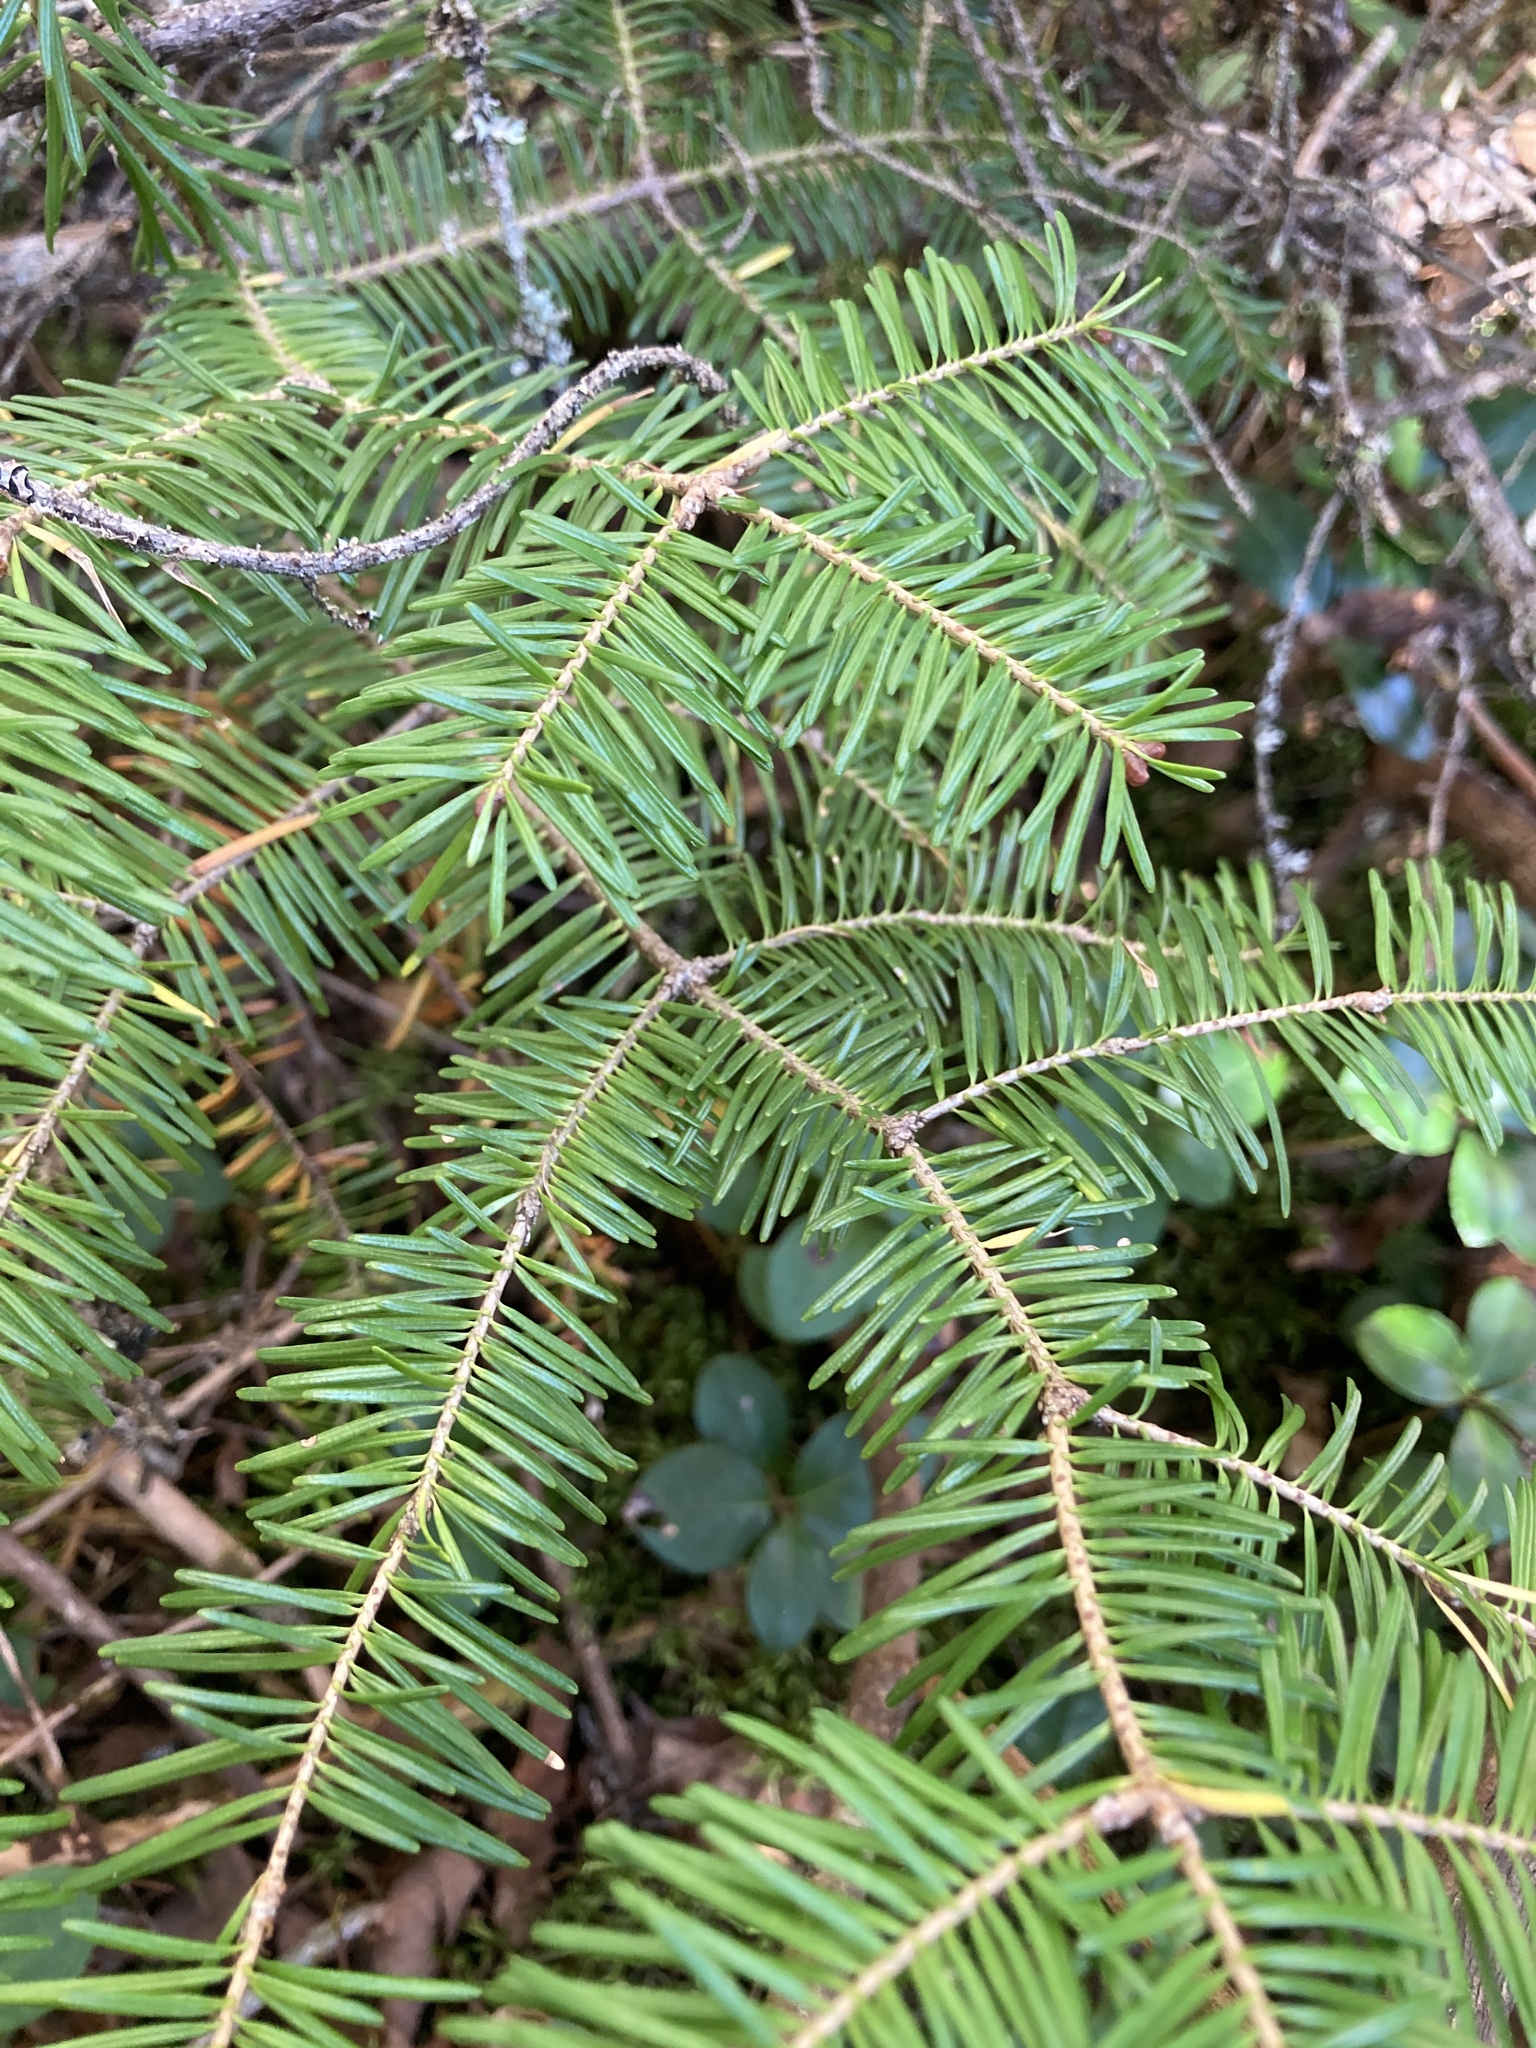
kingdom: Plantae
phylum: Tracheophyta
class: Pinopsida
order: Pinales
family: Pinaceae
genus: Abies
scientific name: Abies balsamea
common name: Balsam fir
